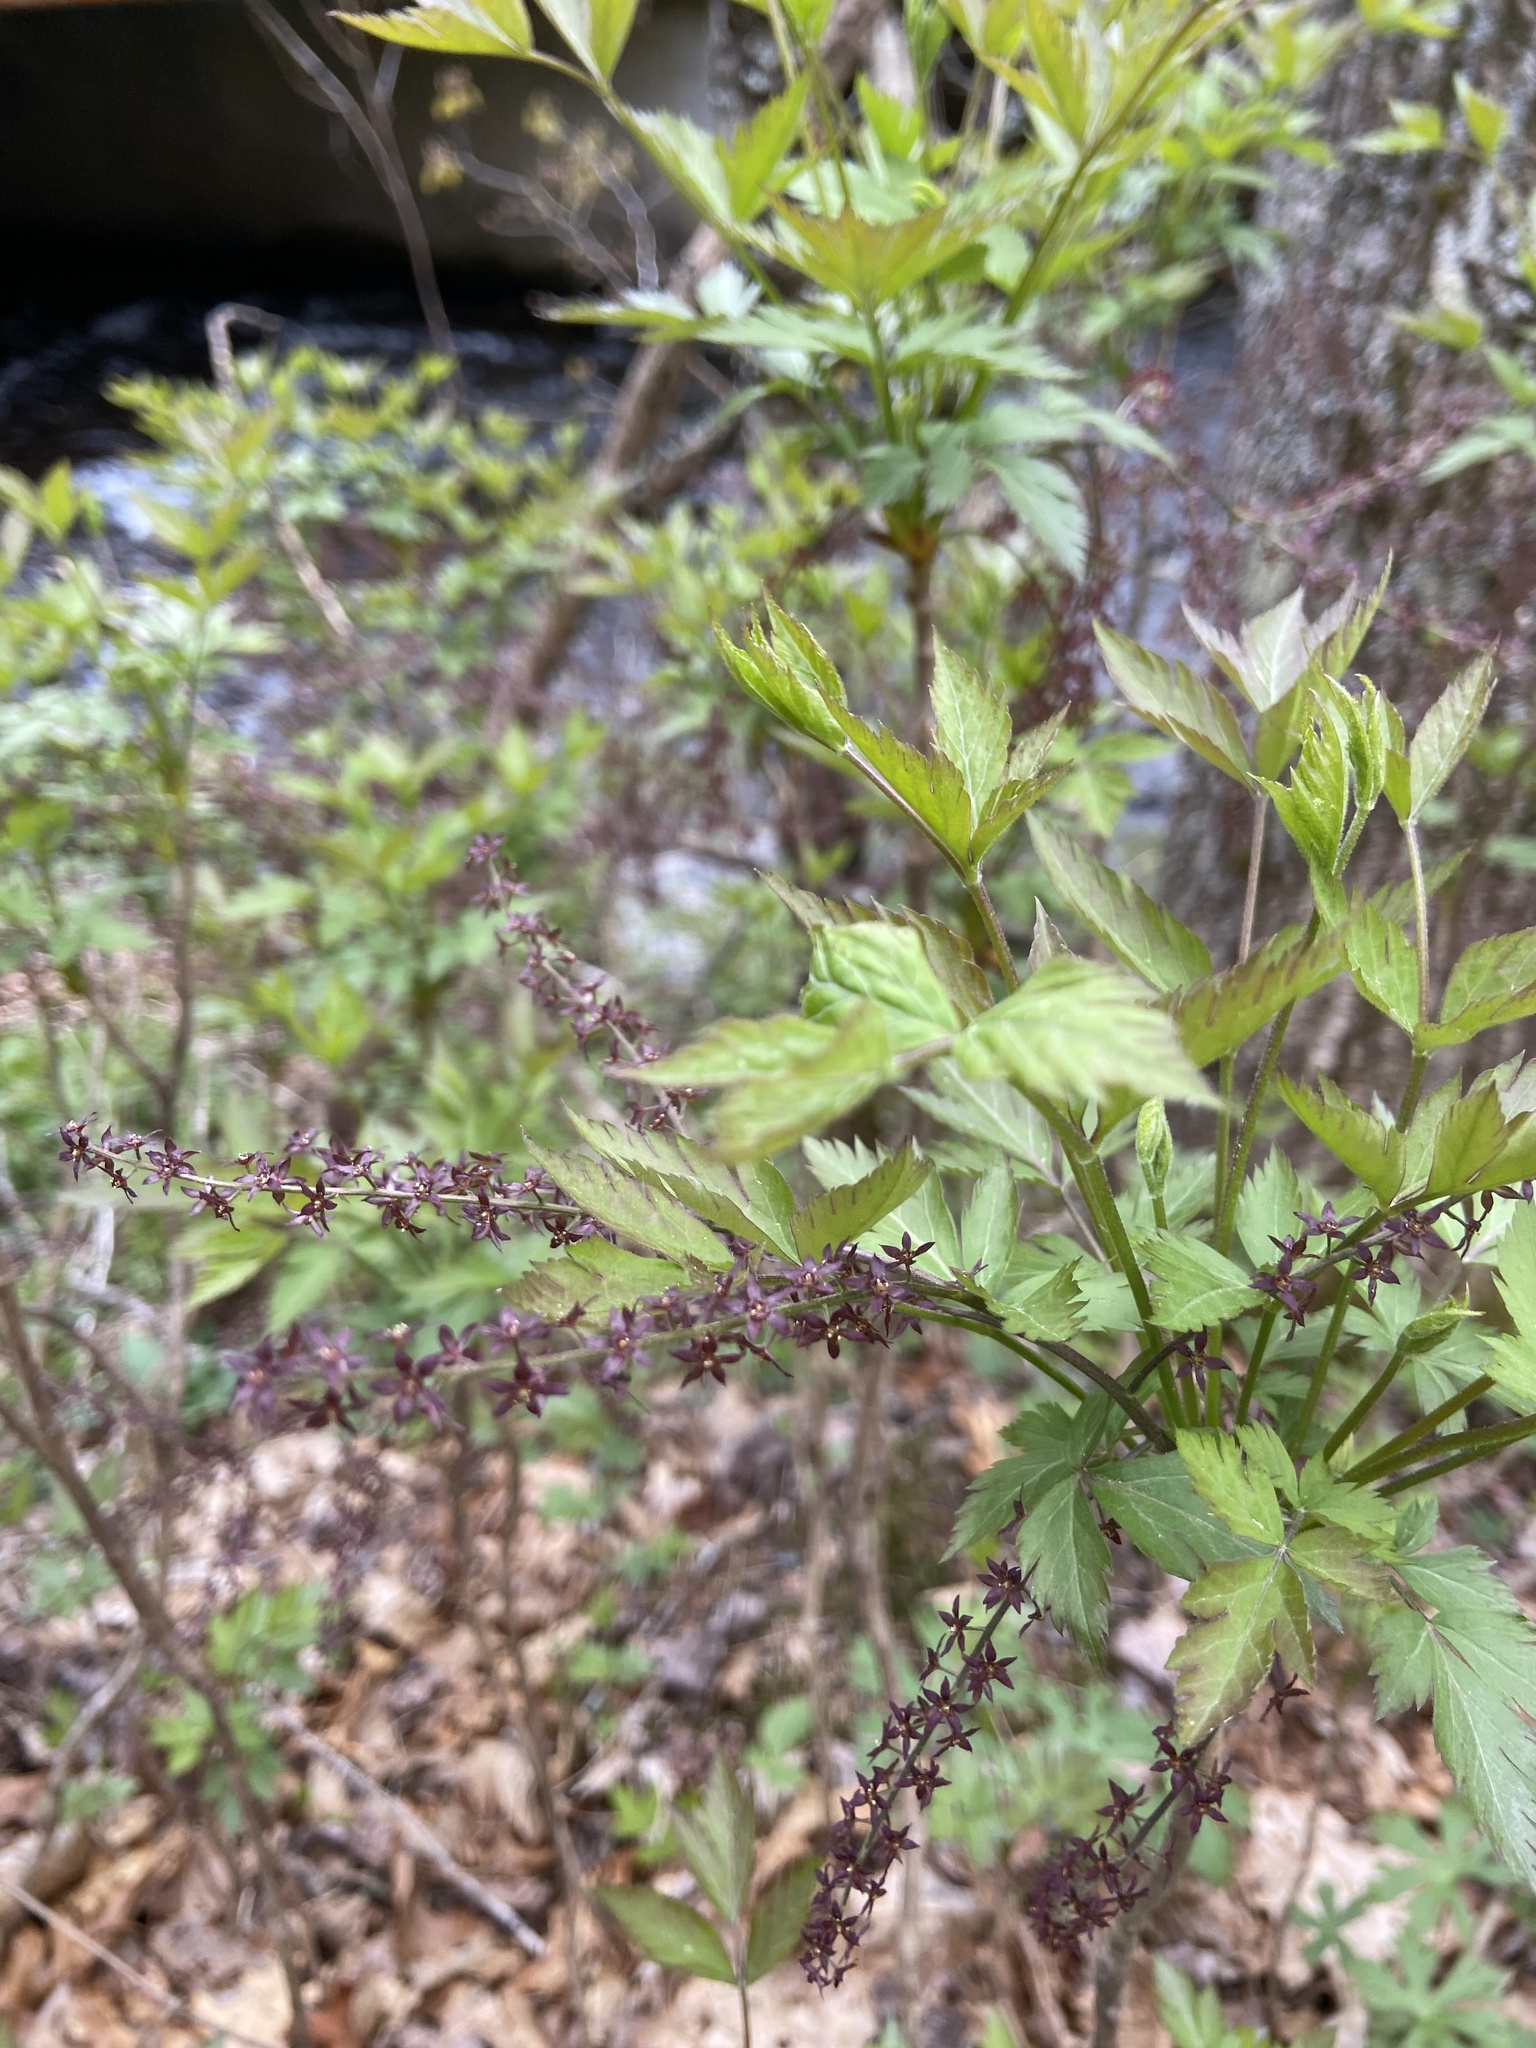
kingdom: Plantae
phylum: Tracheophyta
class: Magnoliopsida
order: Ranunculales
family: Ranunculaceae
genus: Xanthorhiza
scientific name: Xanthorhiza simplicissima
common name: Yellowroot
